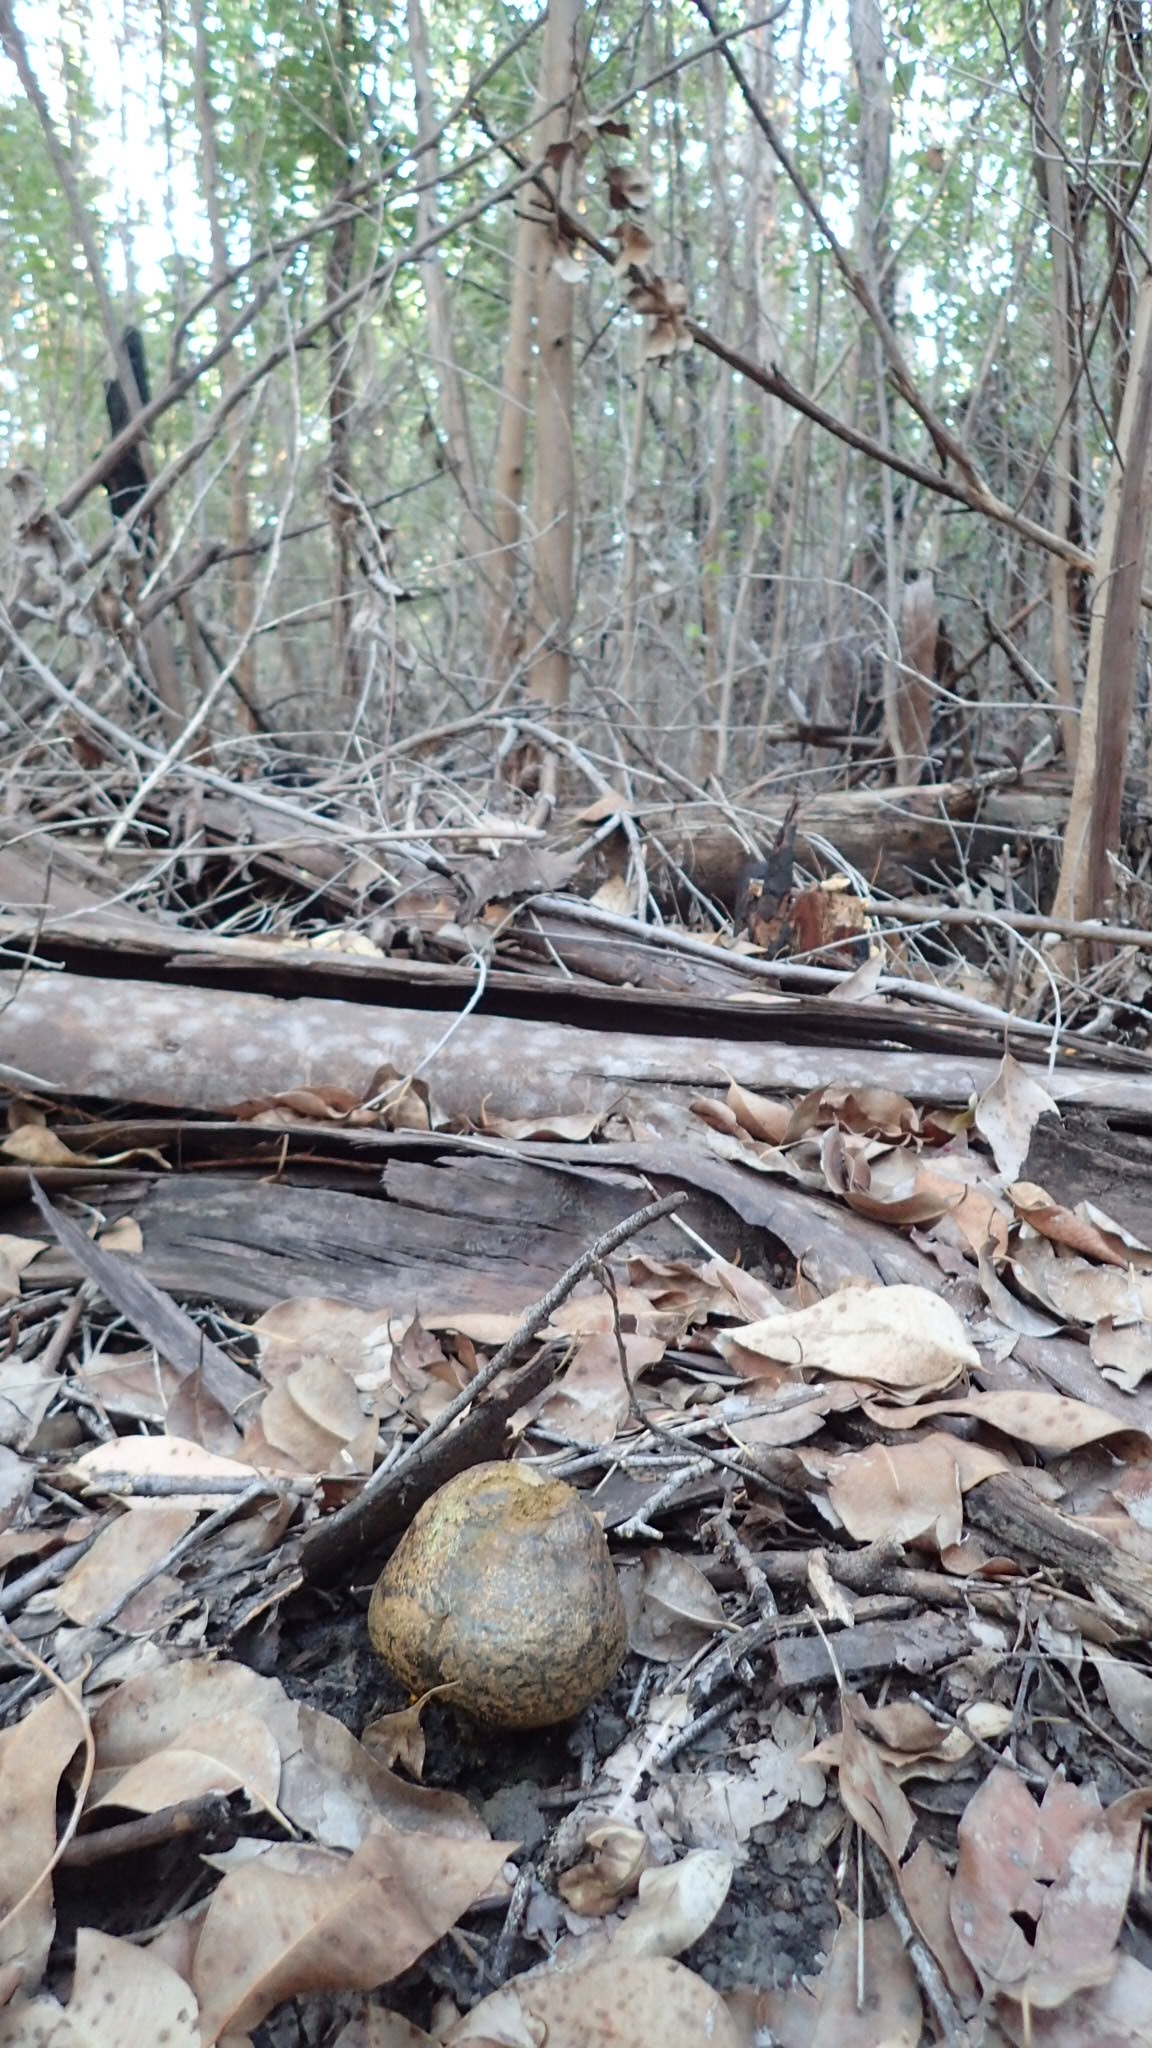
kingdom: Fungi
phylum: Basidiomycota
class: Agaricomycetes
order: Boletales
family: Sclerodermataceae
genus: Pisolithus
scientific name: Pisolithus arhizus
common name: Dyeball
